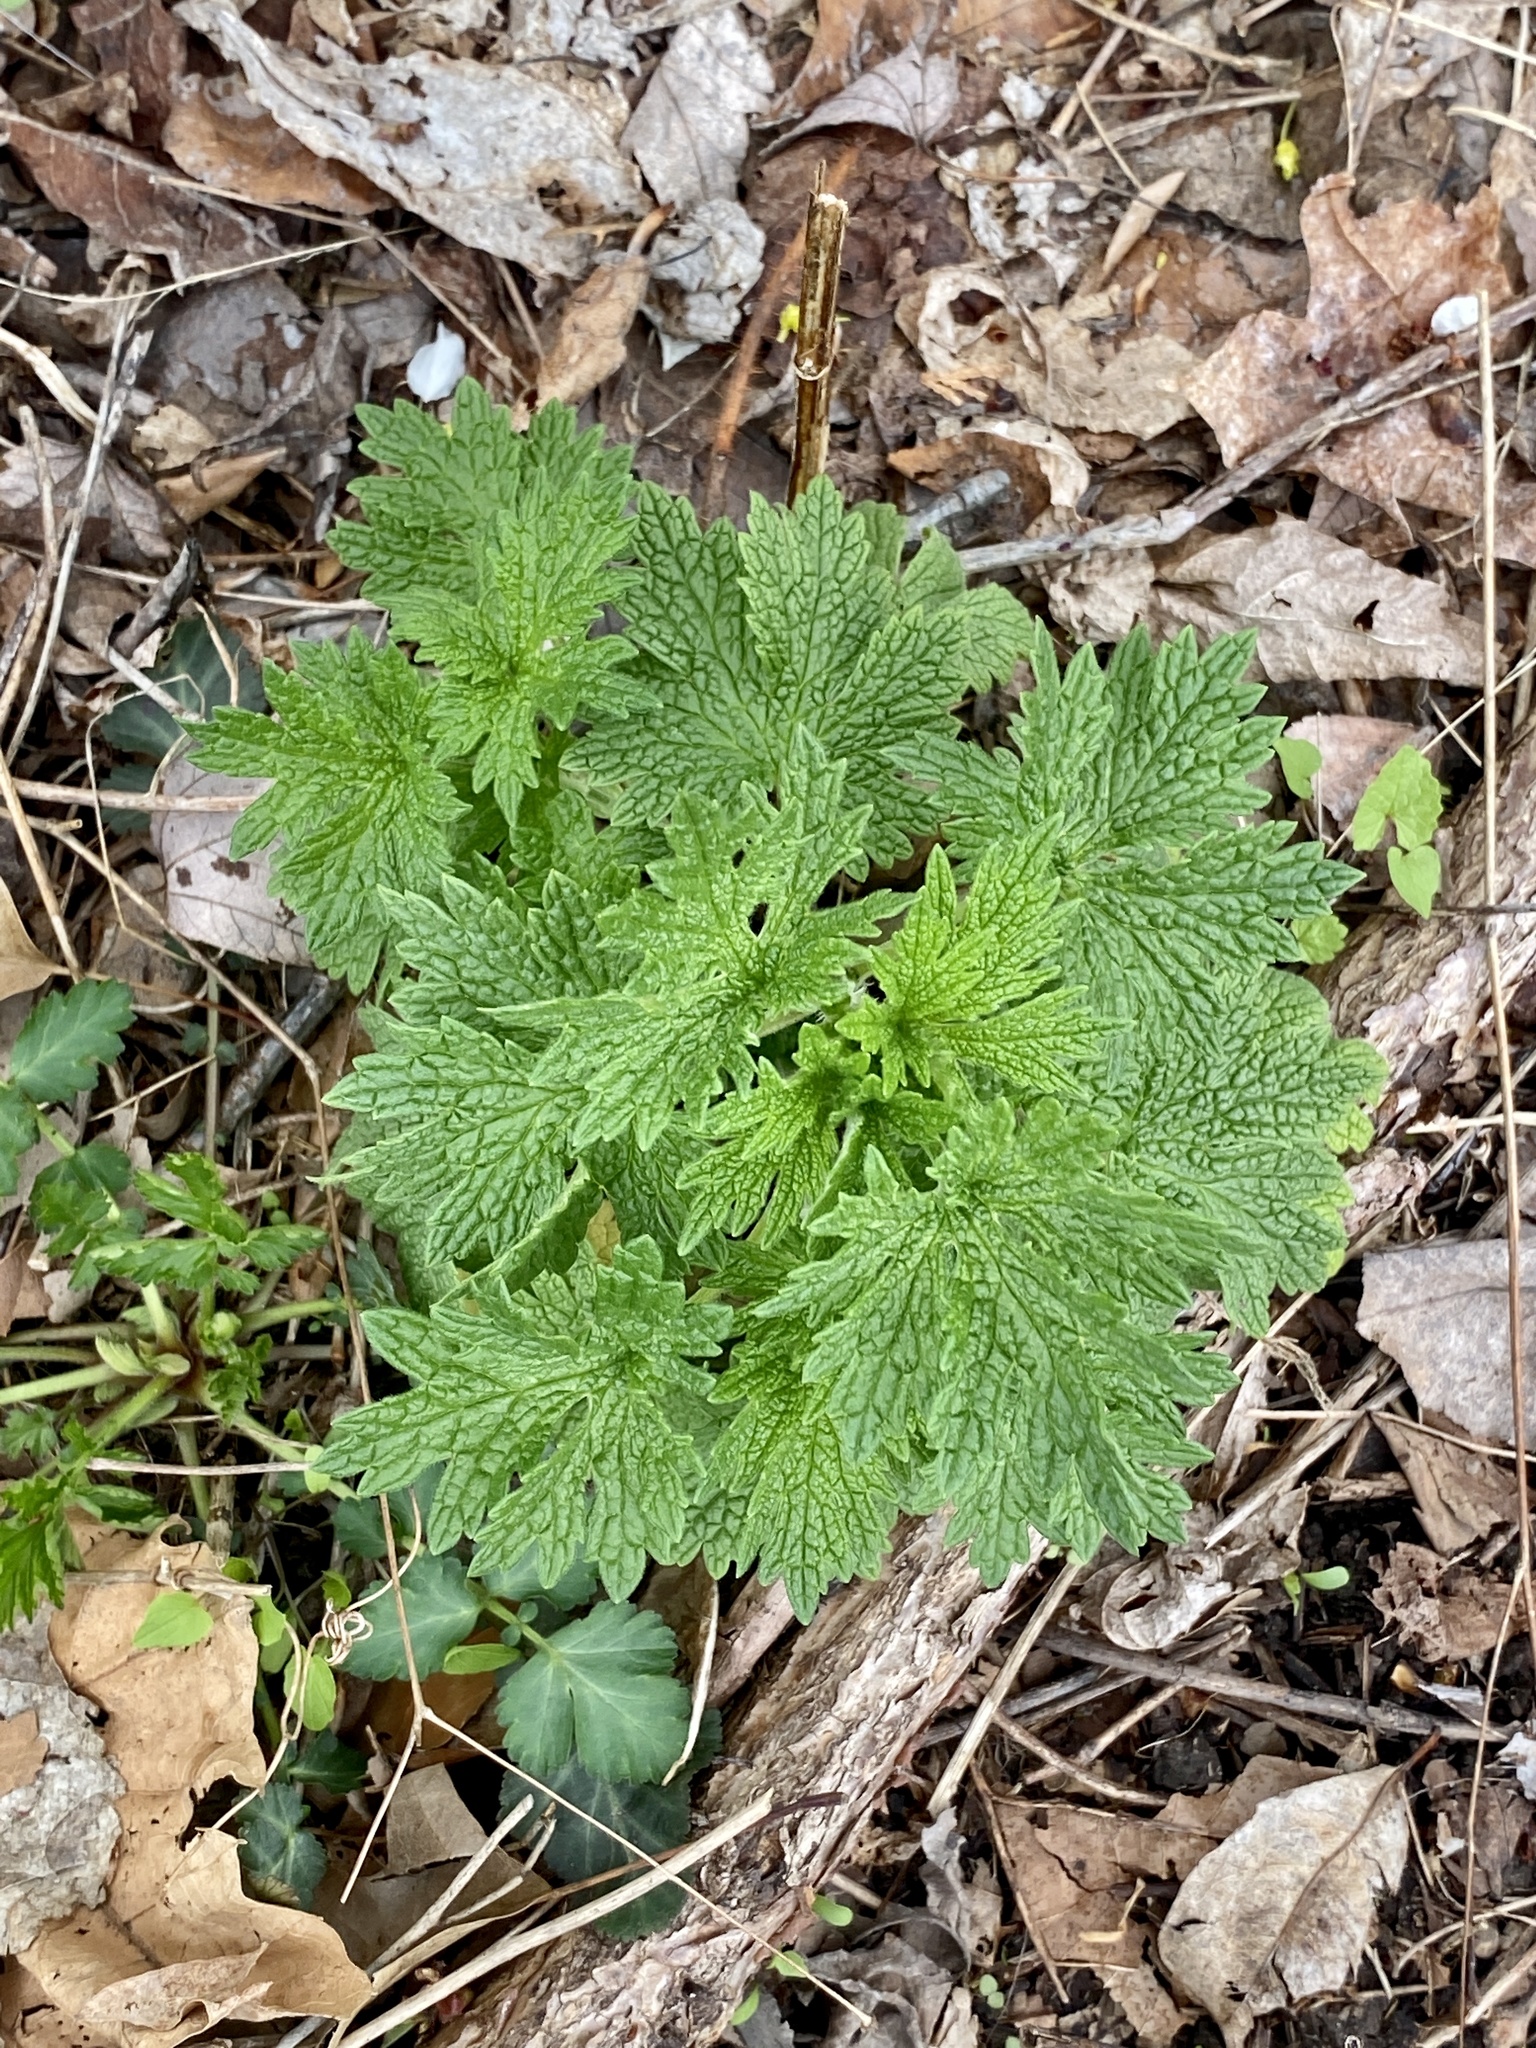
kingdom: Plantae
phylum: Tracheophyta
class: Magnoliopsida
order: Lamiales
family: Lamiaceae
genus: Leonurus
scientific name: Leonurus cardiaca
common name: Motherwort
